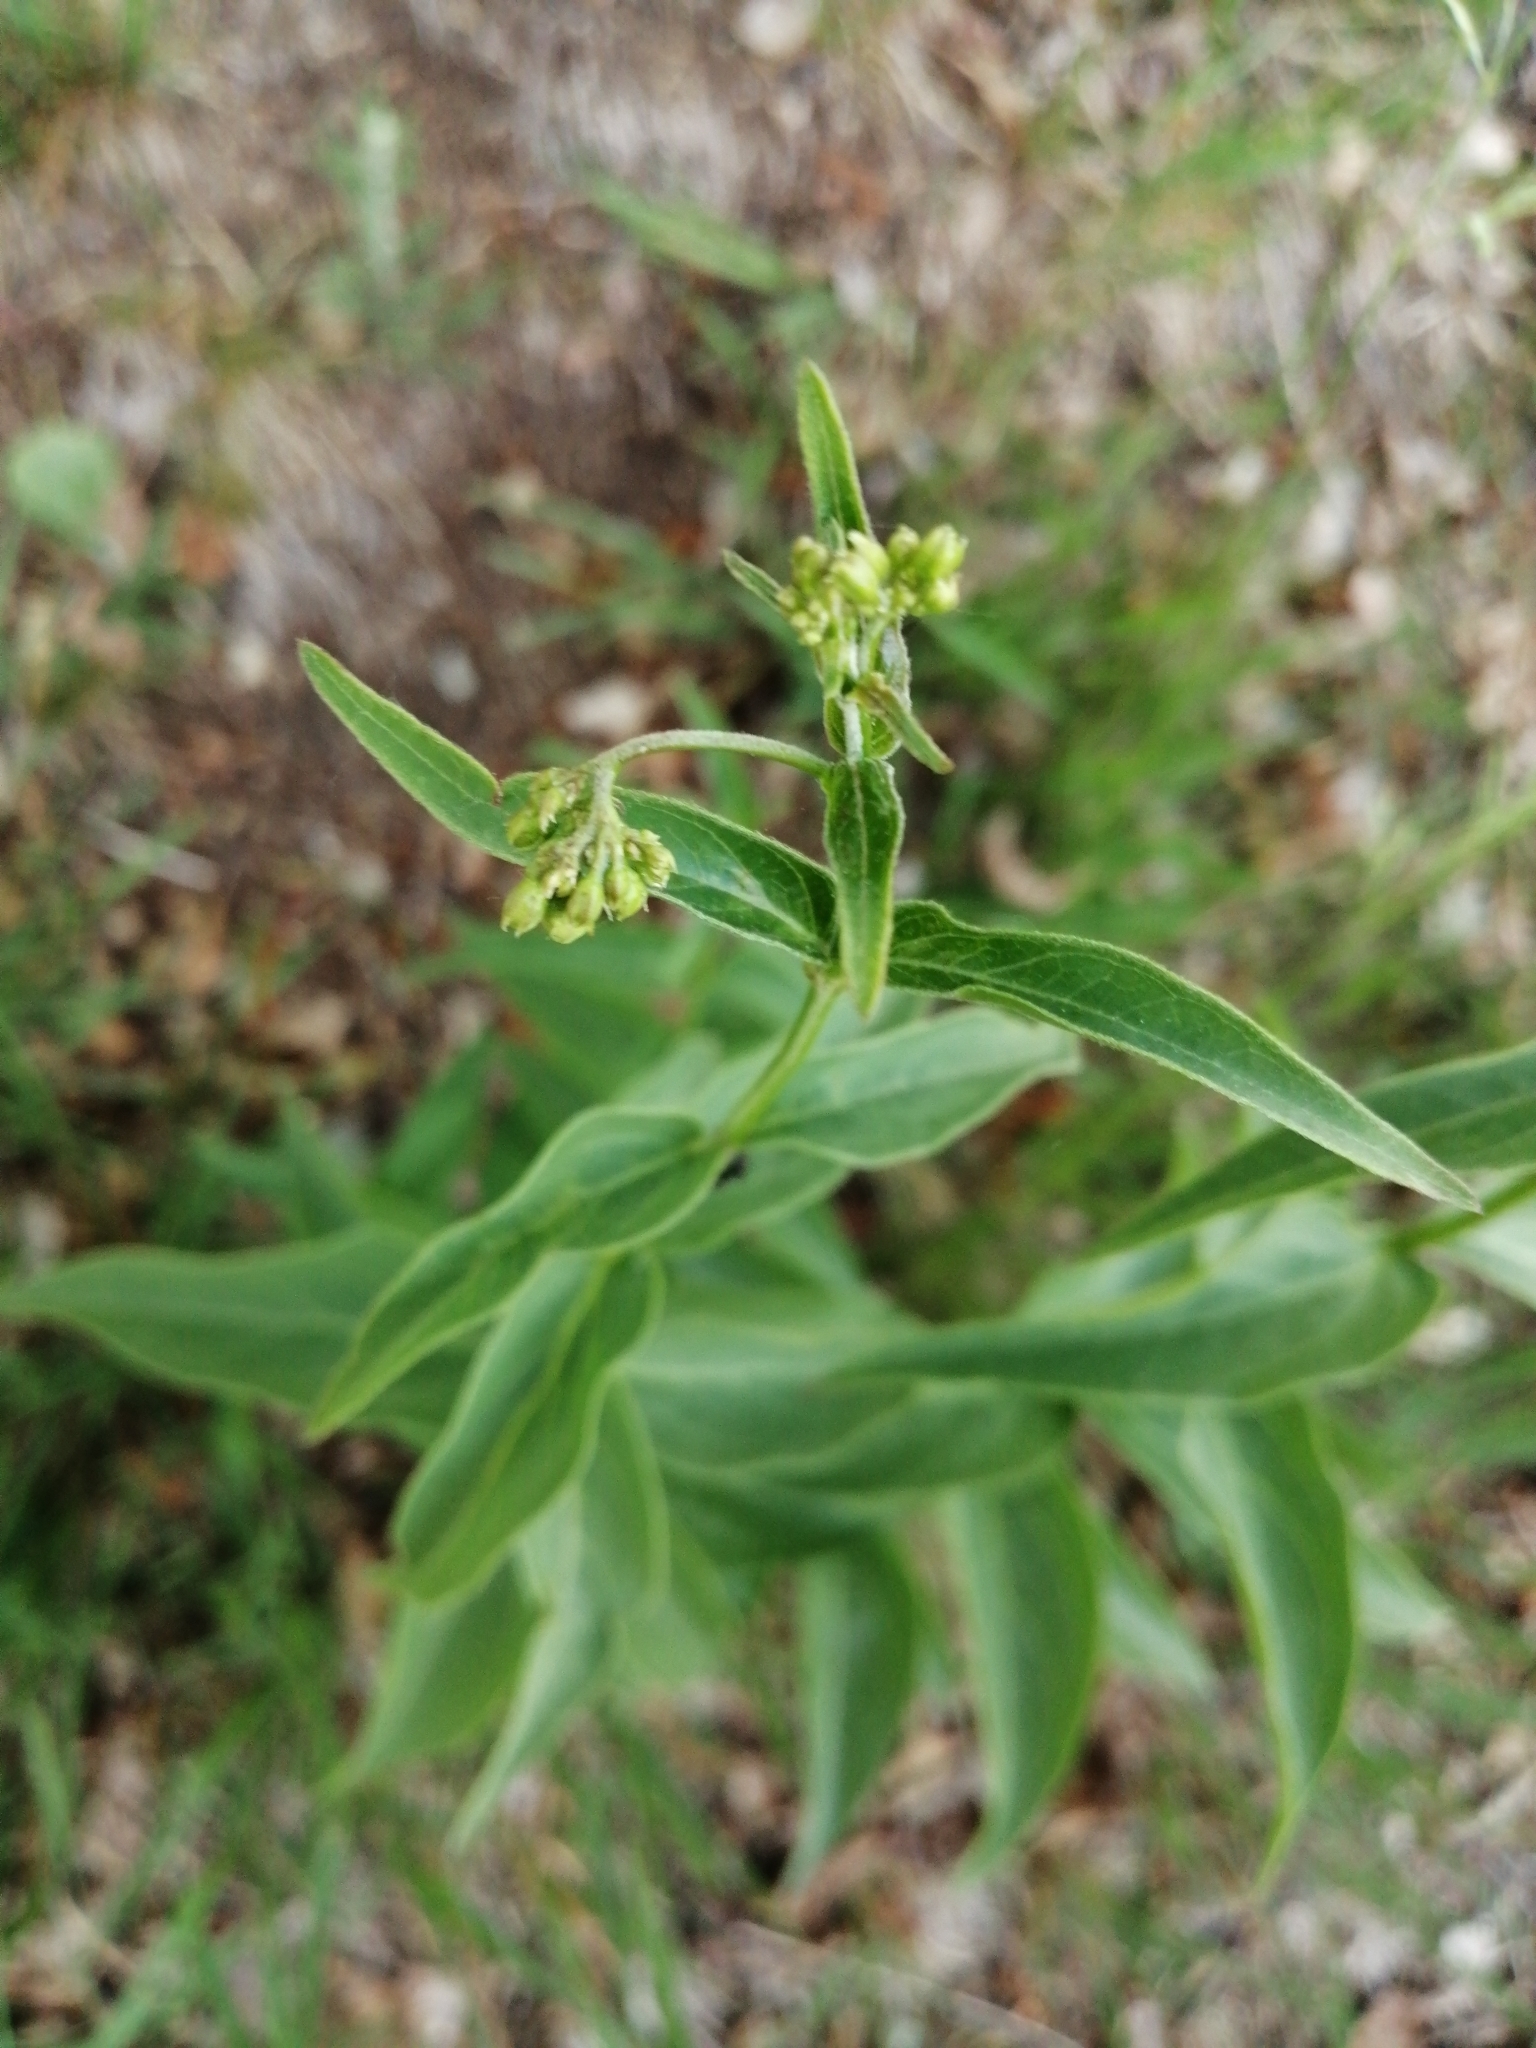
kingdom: Plantae
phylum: Tracheophyta
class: Magnoliopsida
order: Gentianales
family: Apocynaceae
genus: Vincetoxicum
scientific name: Vincetoxicum hirundinaria
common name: White swallowwort
